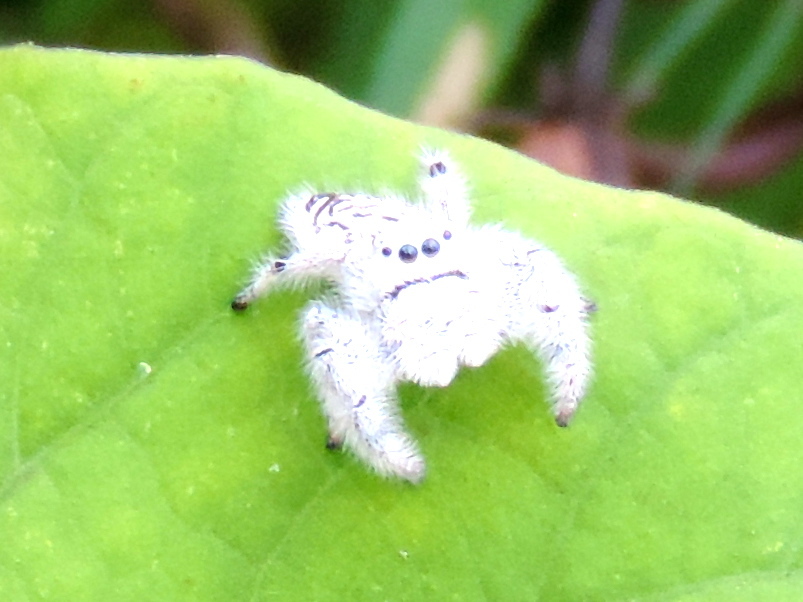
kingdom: Animalia
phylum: Arthropoda
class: Arachnida
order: Araneae
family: Salticidae
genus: Paraphidippus
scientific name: Paraphidippus fartilis
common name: Jumping spiders
